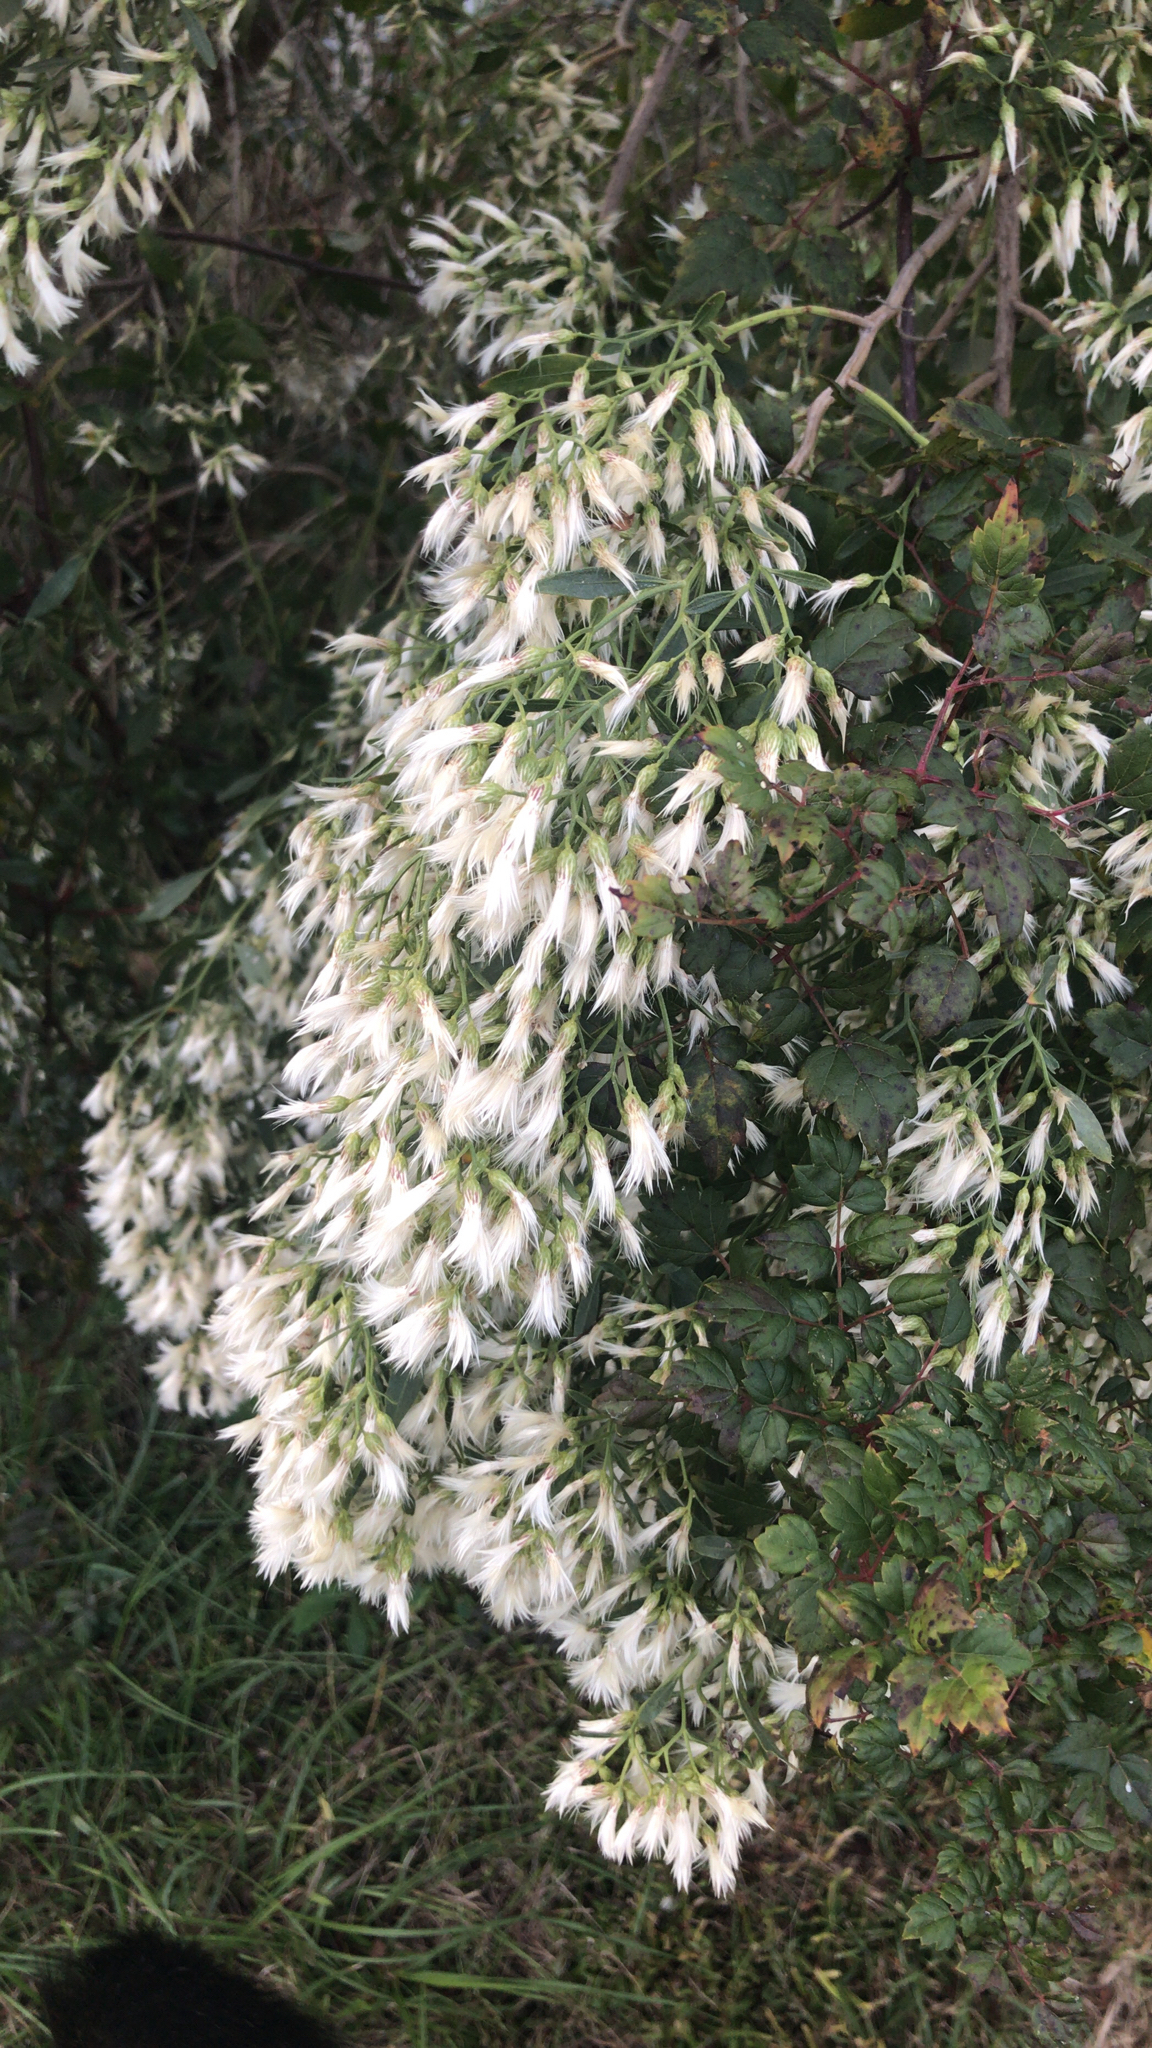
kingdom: Plantae
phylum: Tracheophyta
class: Magnoliopsida
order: Asterales
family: Asteraceae
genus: Baccharis
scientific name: Baccharis halimifolia
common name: Eastern baccharis
